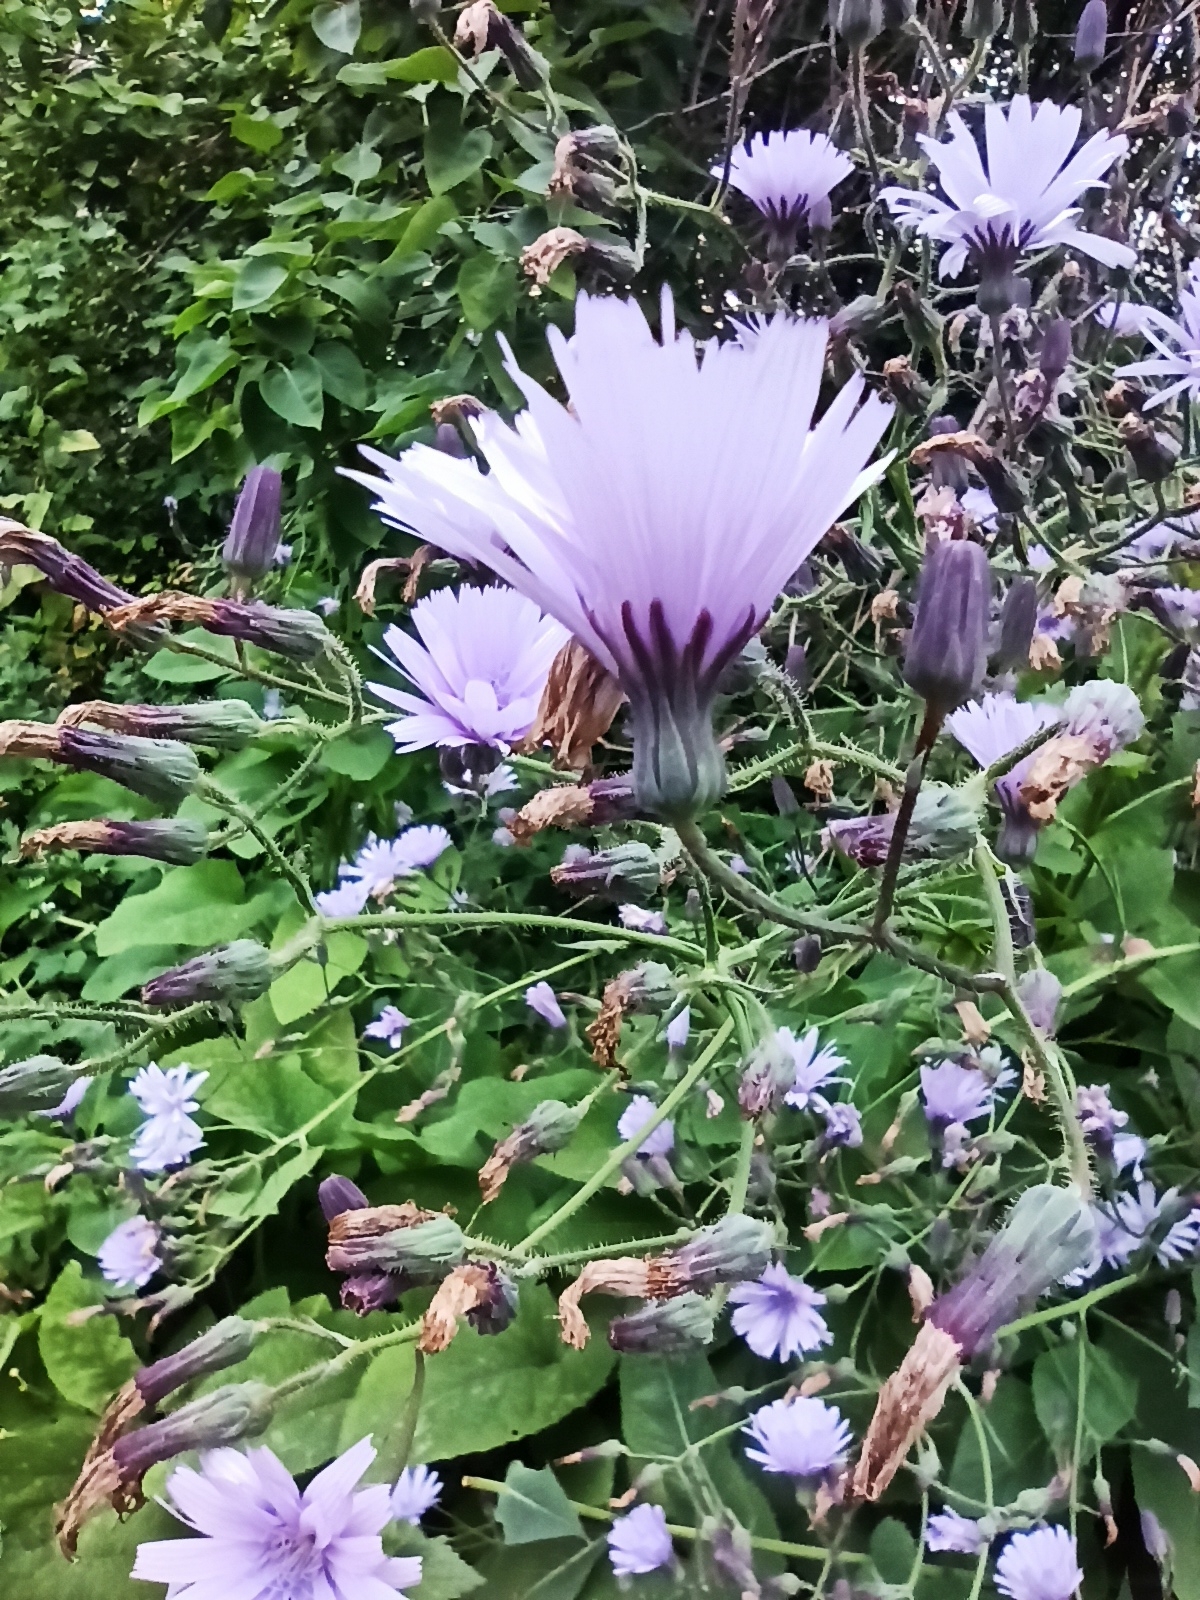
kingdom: Plantae
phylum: Tracheophyta
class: Magnoliopsida
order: Asterales
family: Asteraceae
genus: Lactuca
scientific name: Lactuca macrophylla
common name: Common blue-sow-thistle
